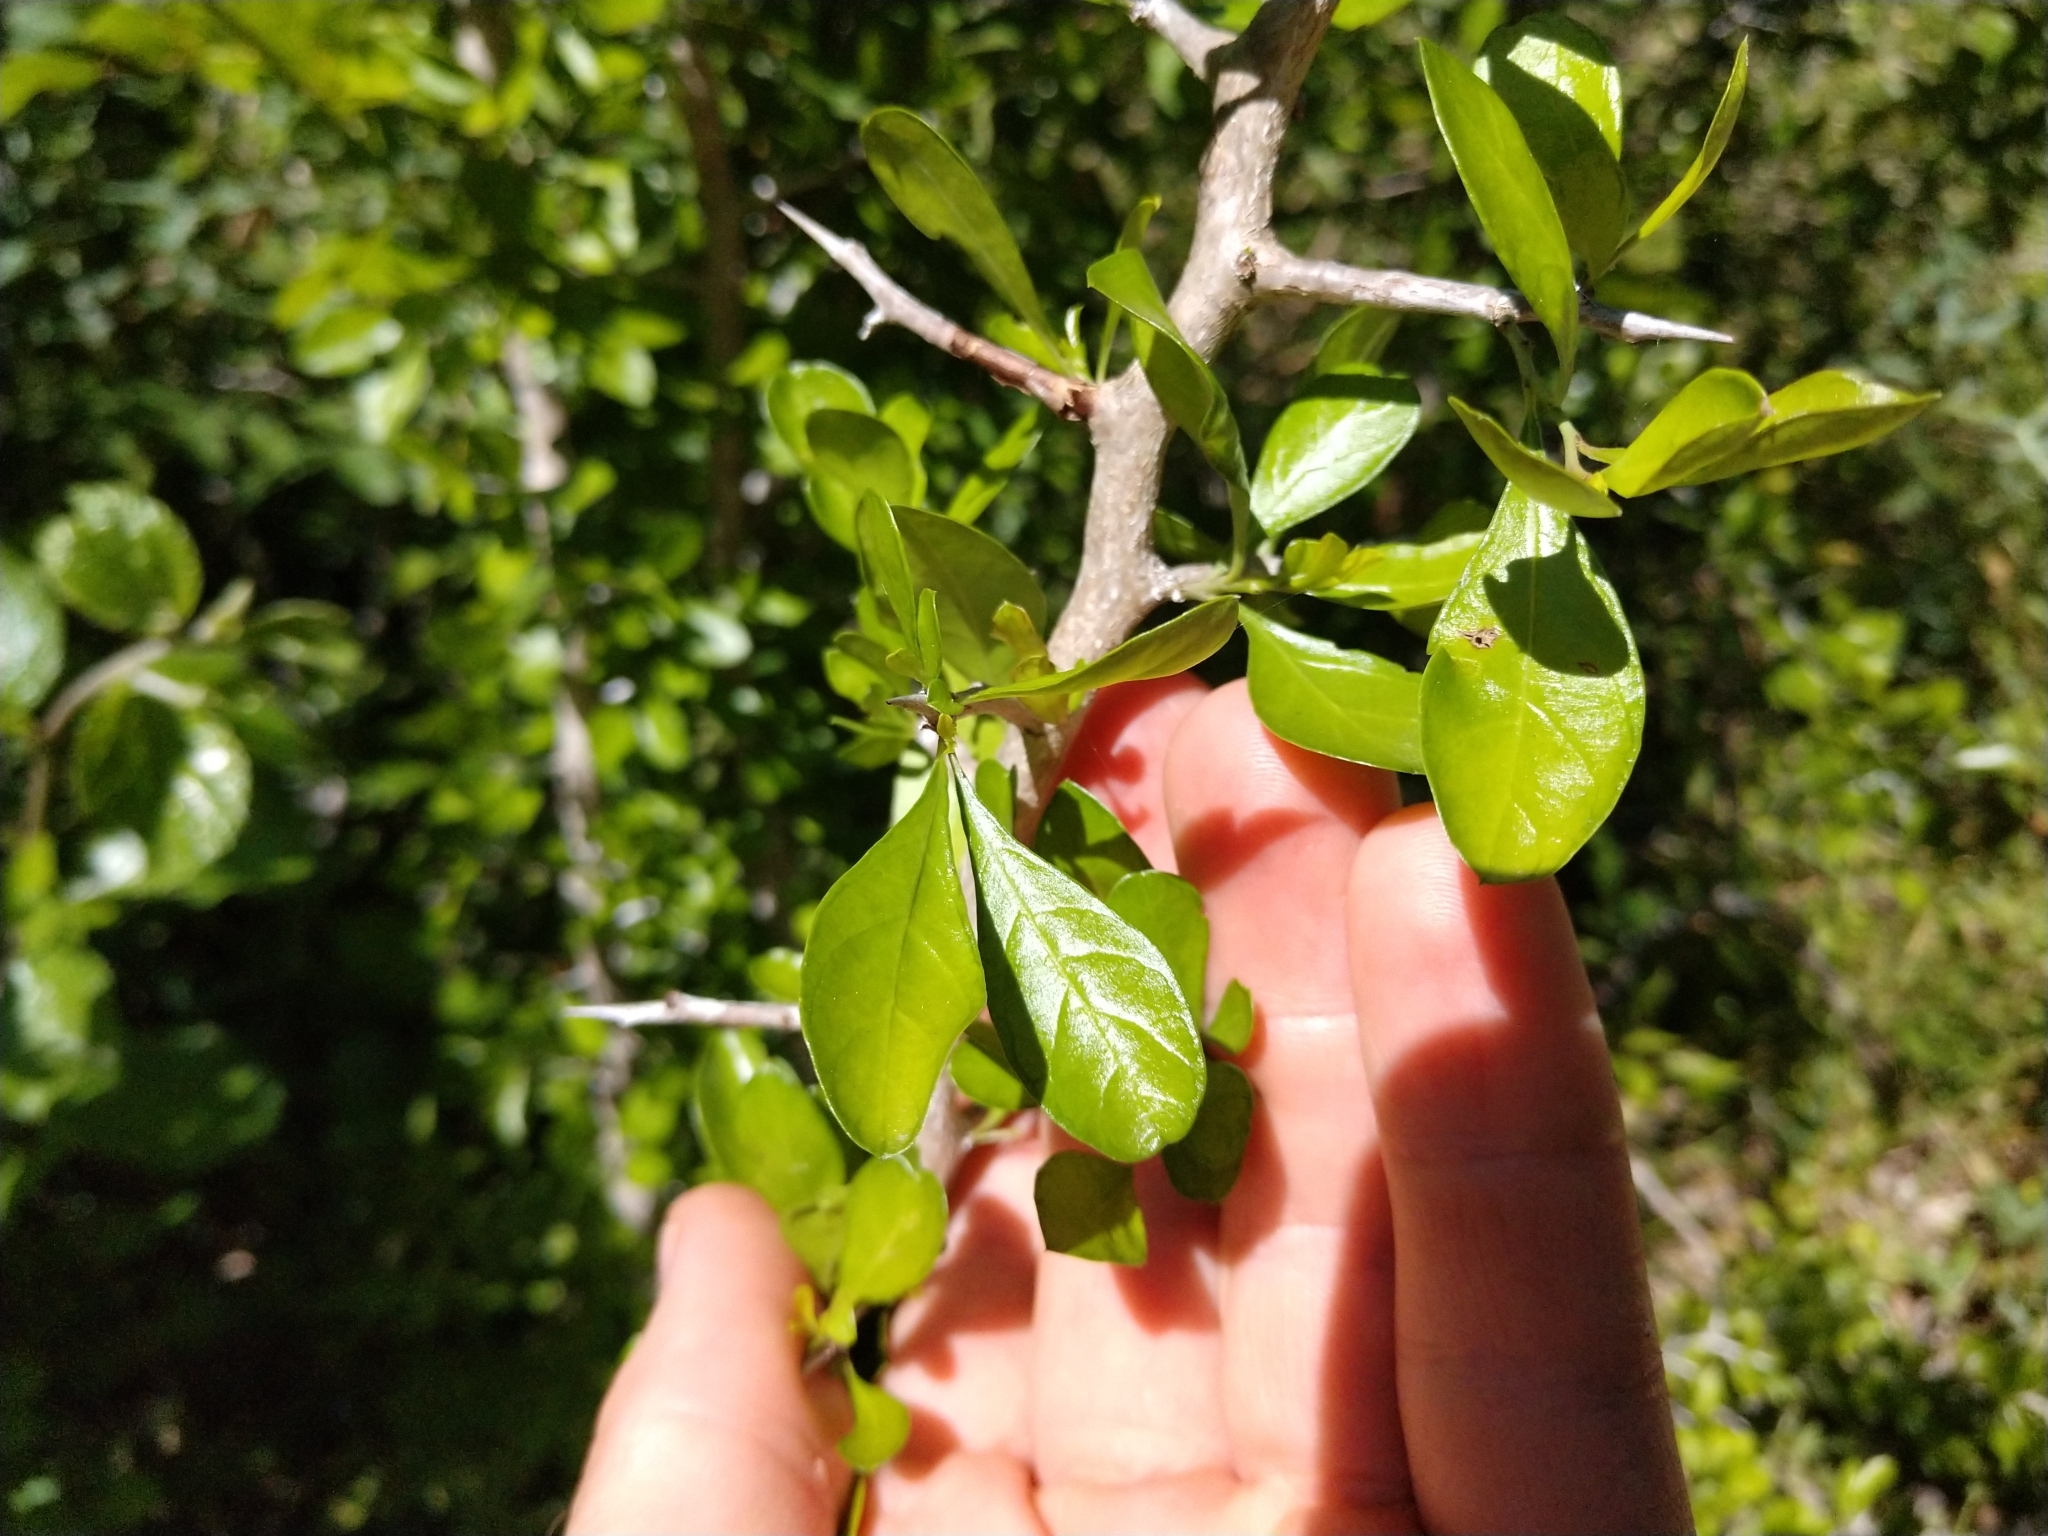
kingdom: Plantae
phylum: Tracheophyta
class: Magnoliopsida
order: Rosales
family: Rhamnaceae
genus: Condalia
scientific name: Condalia hookeri
